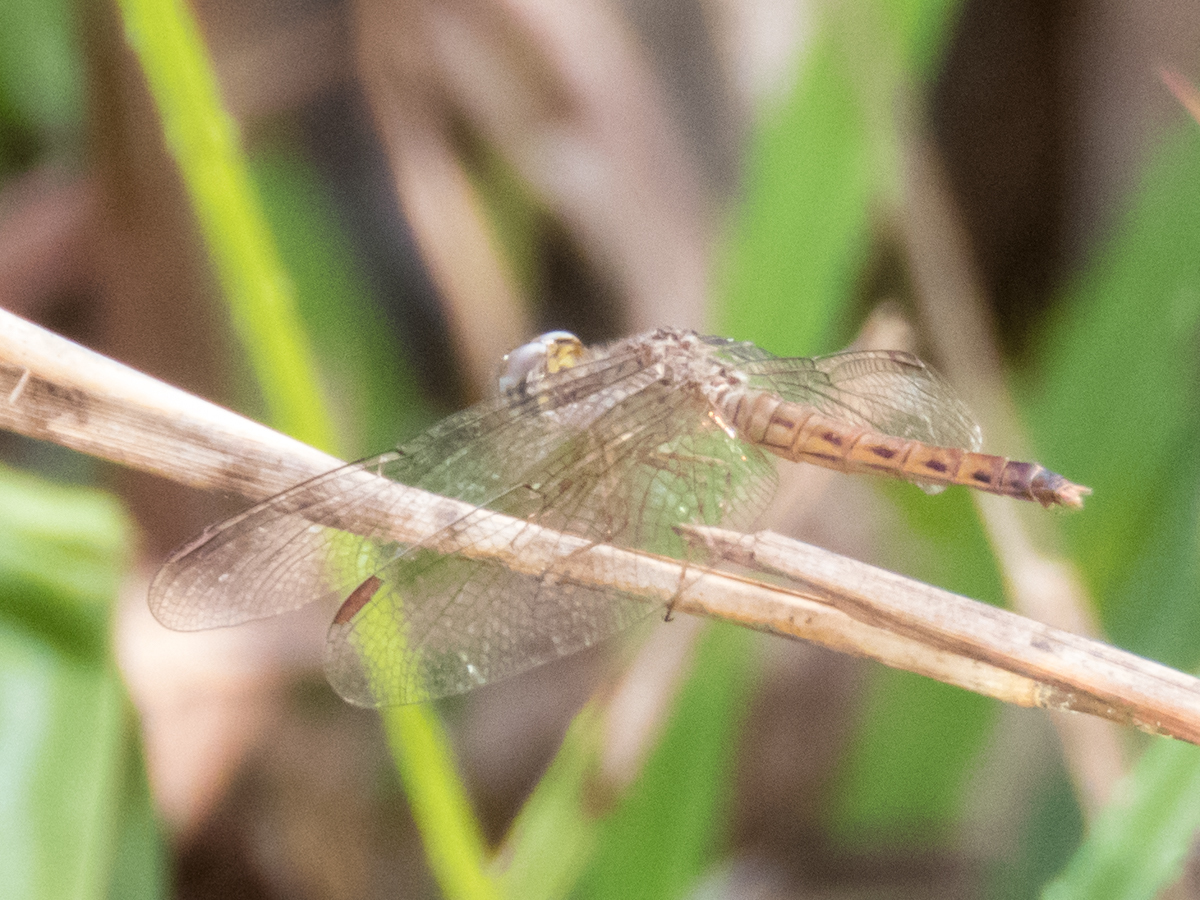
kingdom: Animalia
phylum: Arthropoda
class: Insecta
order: Odonata
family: Libellulidae
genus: Neurothemis
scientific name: Neurothemis fluctuans
